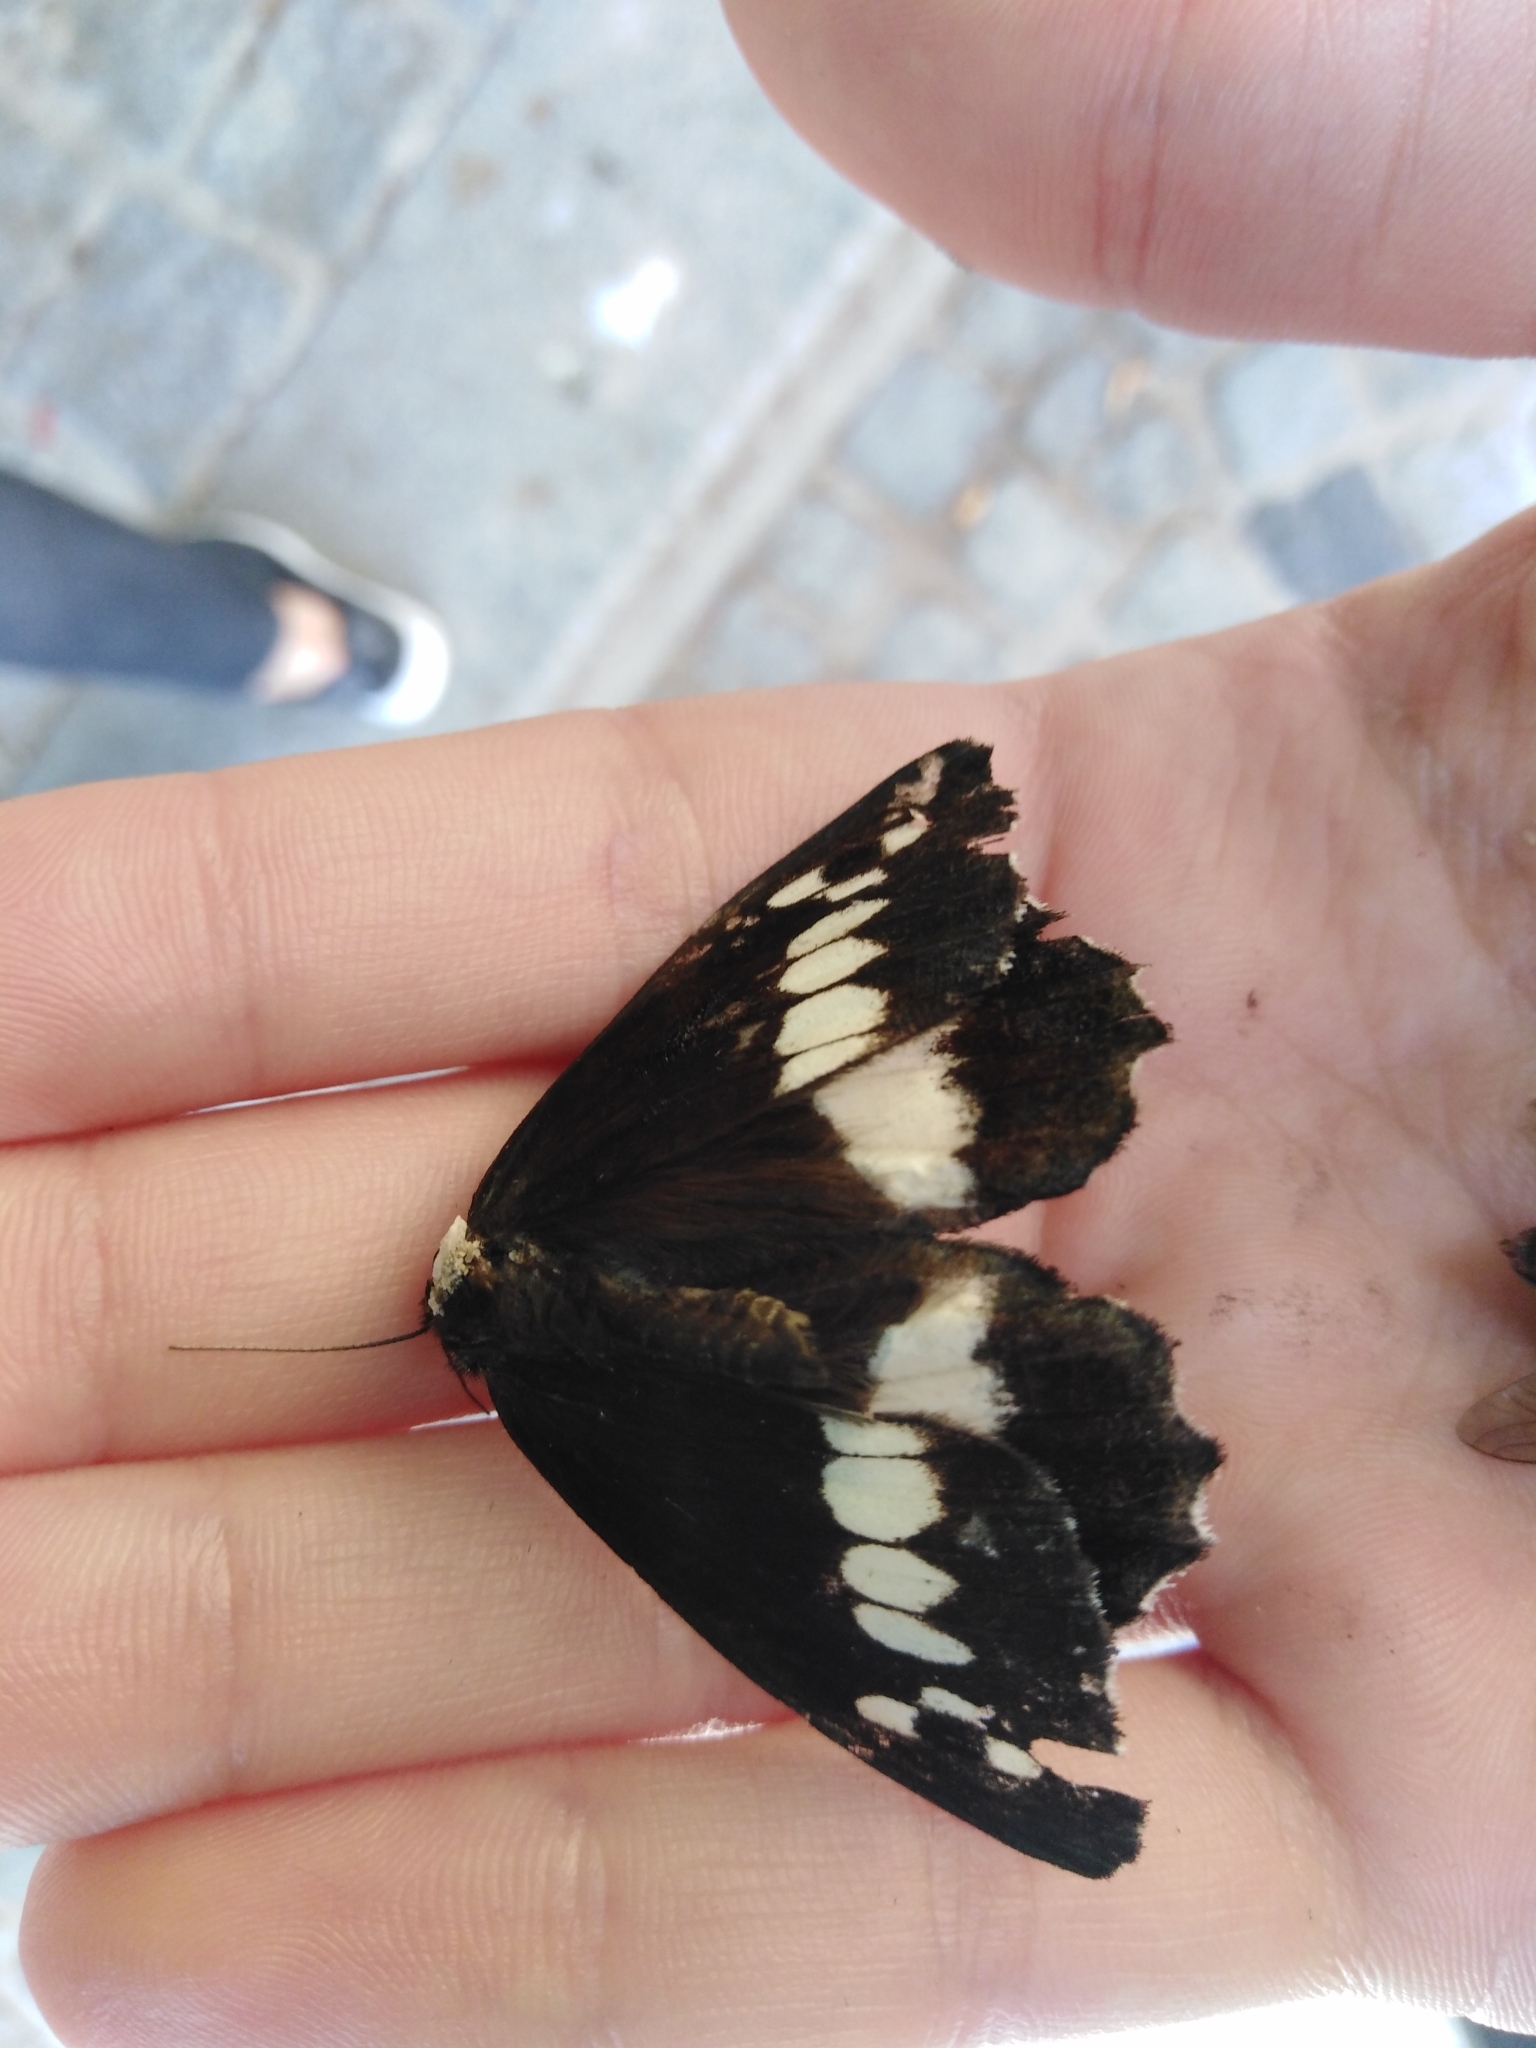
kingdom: Animalia
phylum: Arthropoda
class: Insecta
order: Lepidoptera
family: Lycaenidae
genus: Loweia
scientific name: Loweia tityrus
